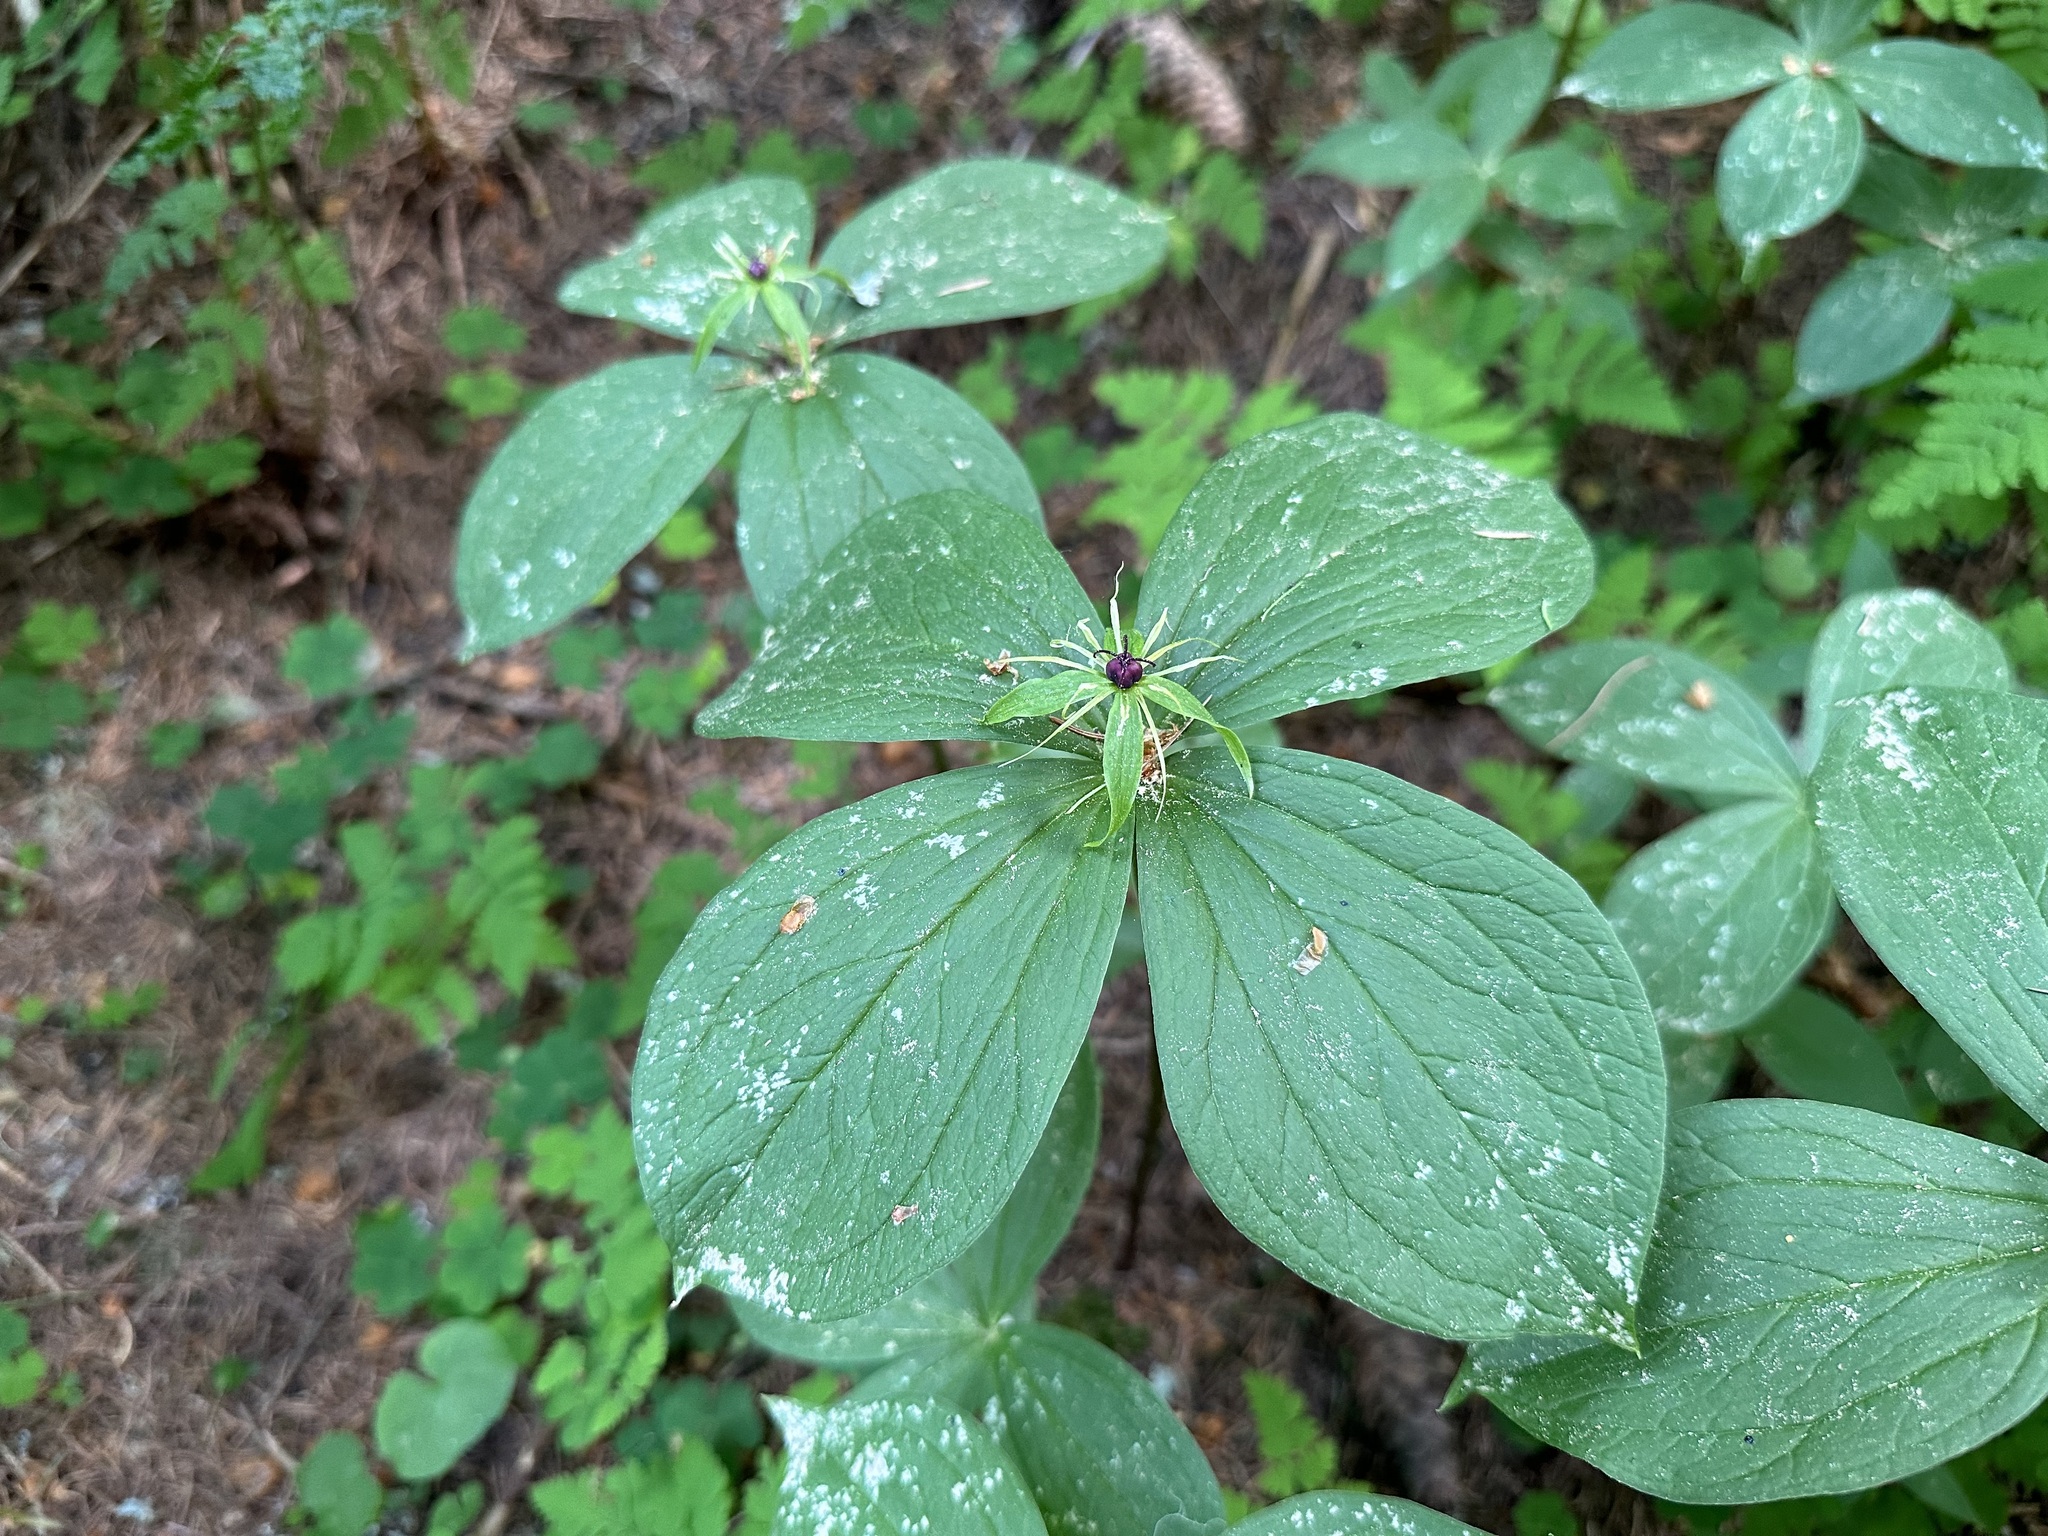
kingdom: Plantae
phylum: Tracheophyta
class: Liliopsida
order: Liliales
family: Melanthiaceae
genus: Paris
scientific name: Paris quadrifolia
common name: Herb-paris
